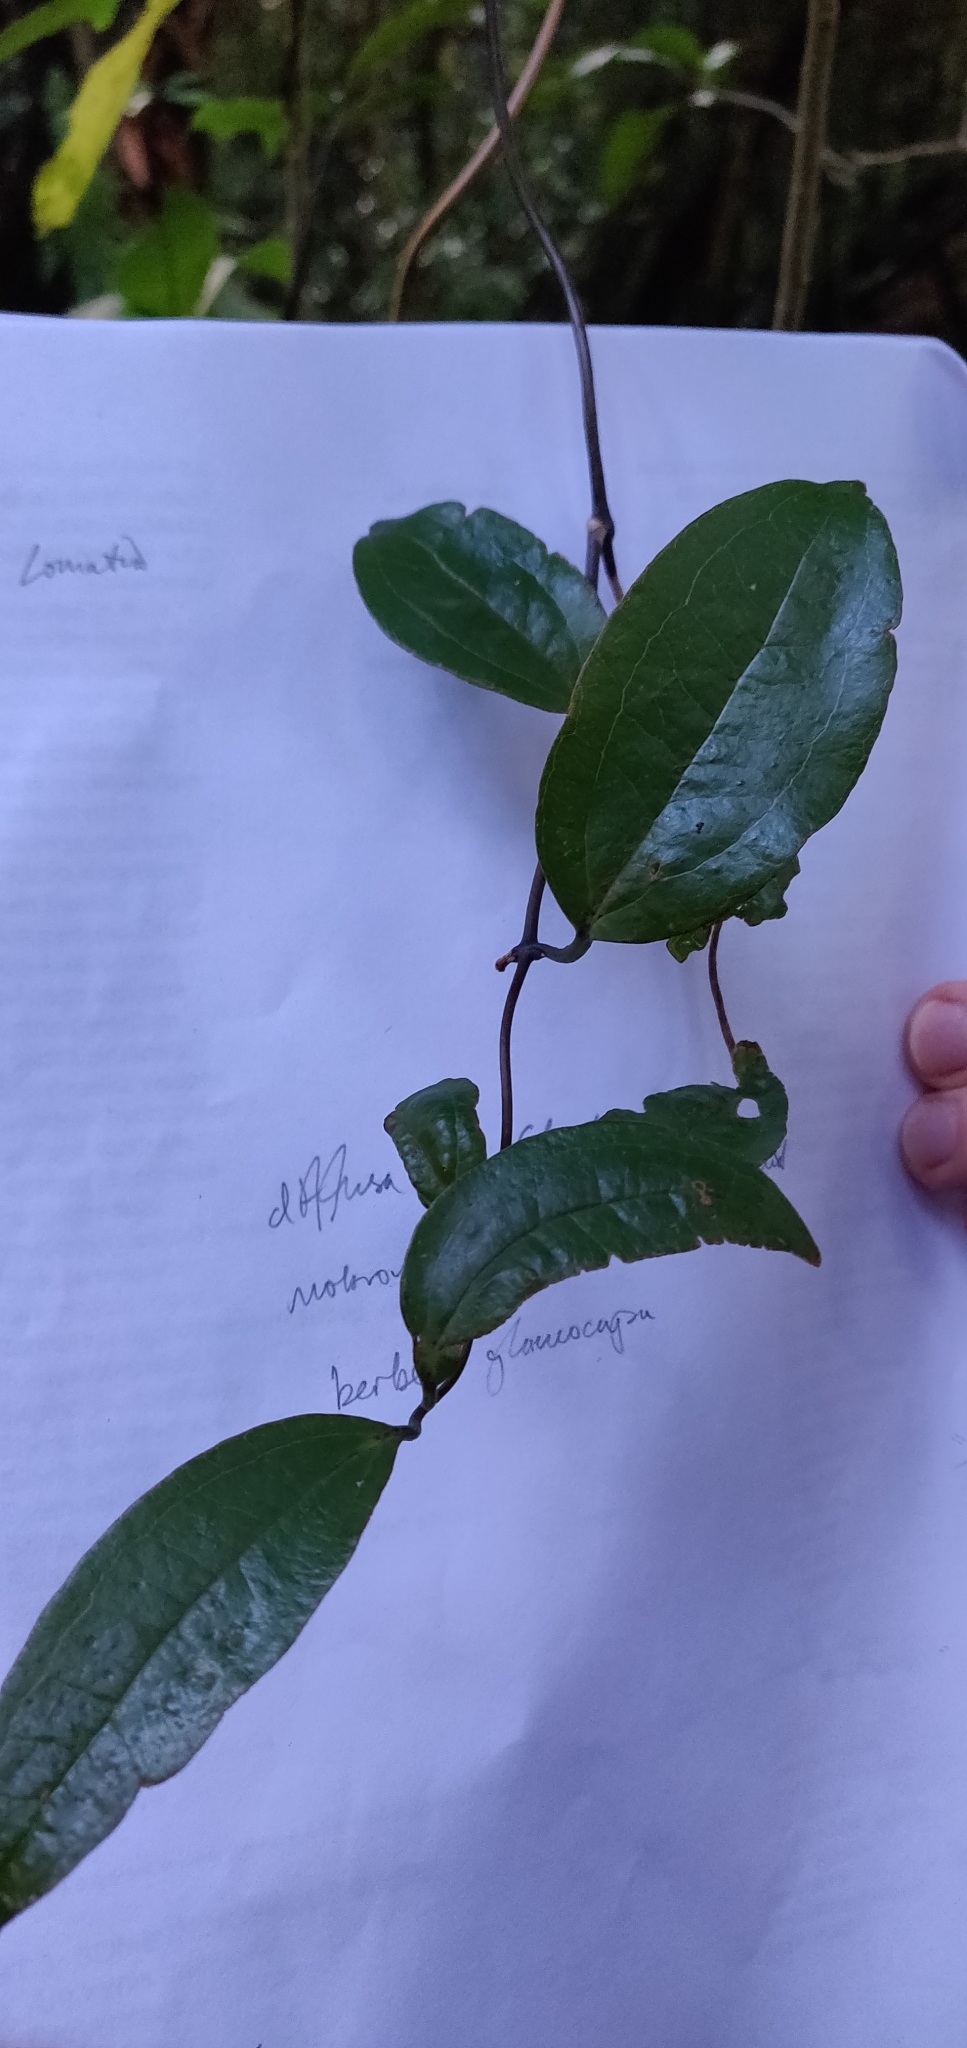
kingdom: Plantae
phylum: Tracheophyta
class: Liliopsida
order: Liliales
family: Ripogonaceae
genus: Ripogonum
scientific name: Ripogonum scandens
